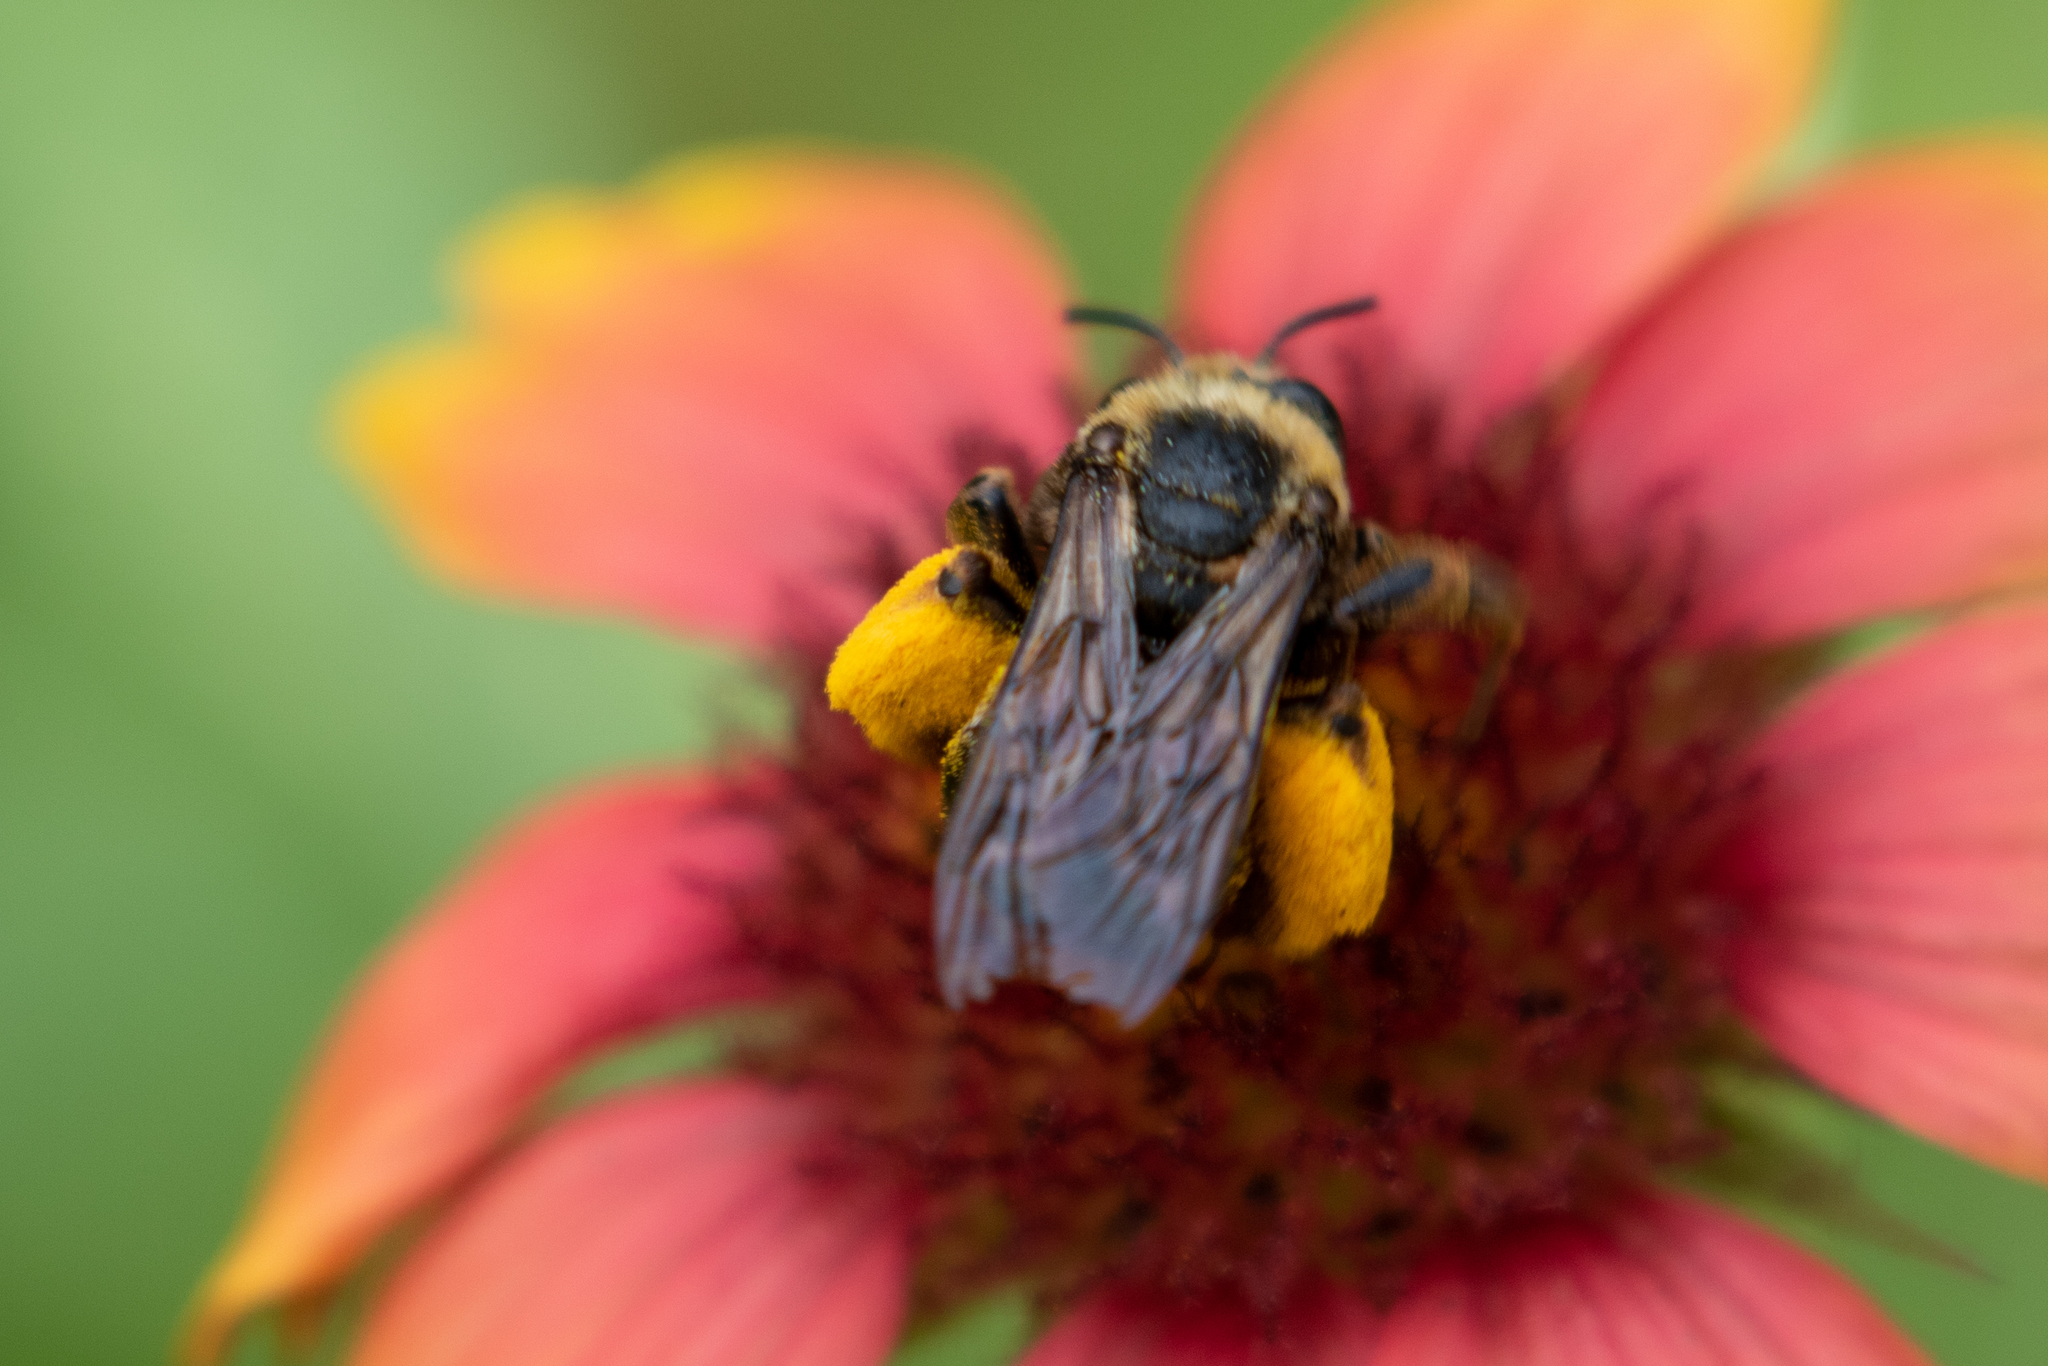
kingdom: Animalia
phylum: Arthropoda
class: Insecta
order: Hymenoptera
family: Apidae
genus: Svastra
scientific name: Svastra obliqua
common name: Oblique longhorn
